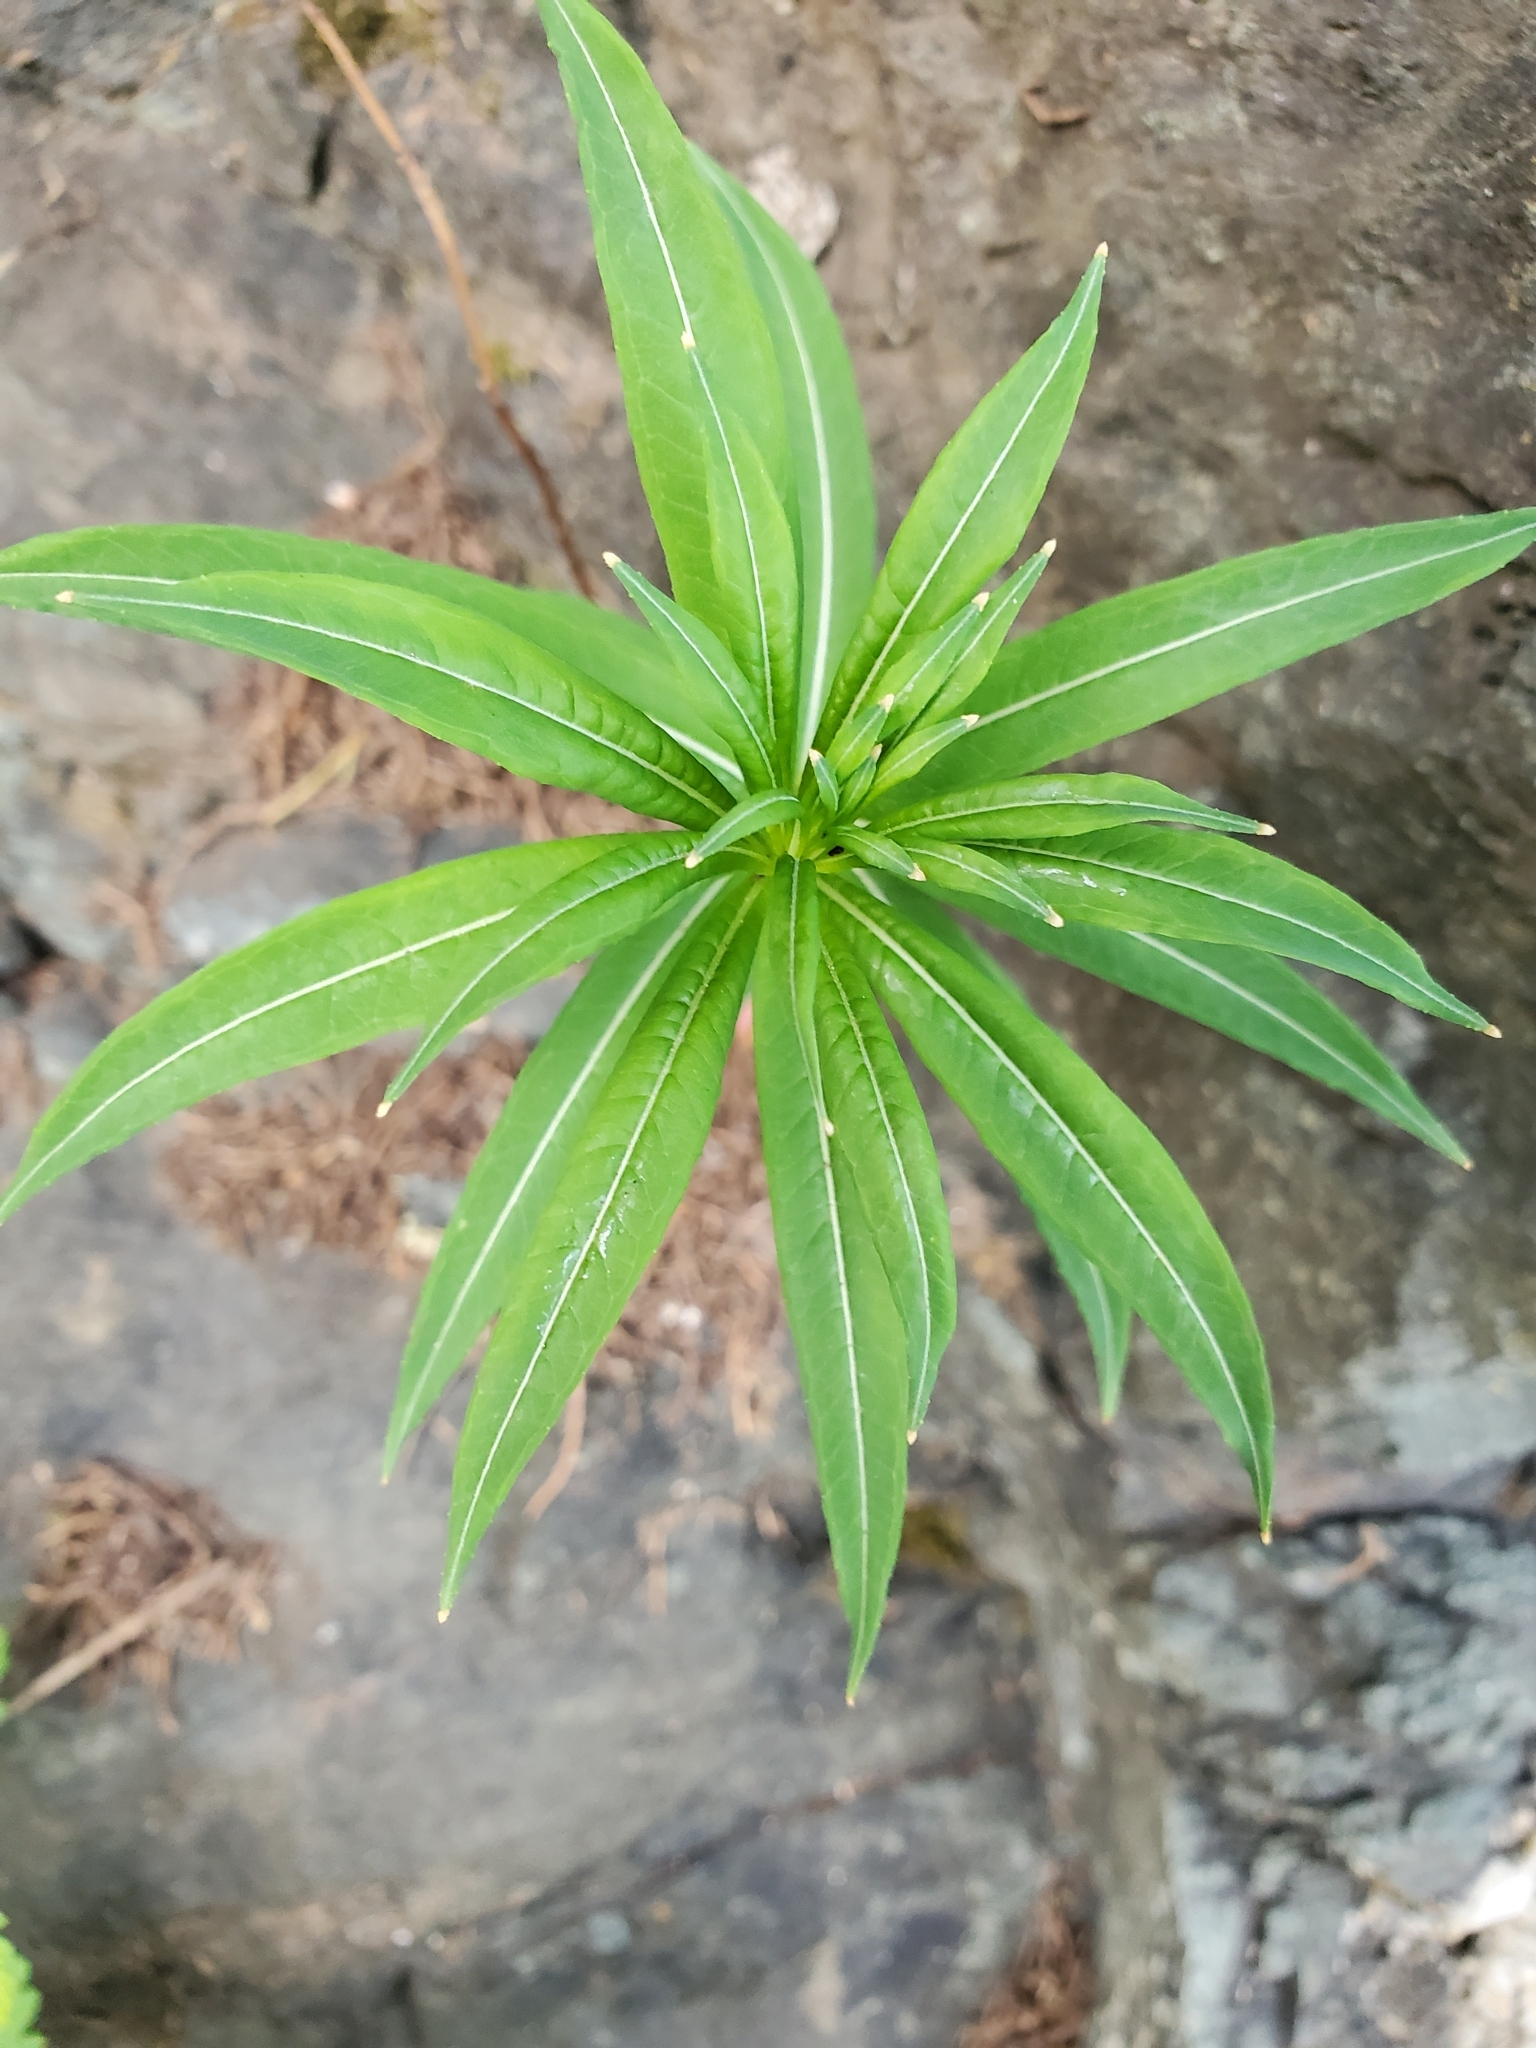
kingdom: Plantae
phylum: Tracheophyta
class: Magnoliopsida
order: Myrtales
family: Onagraceae
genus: Chamaenerion
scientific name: Chamaenerion angustifolium
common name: Fireweed
